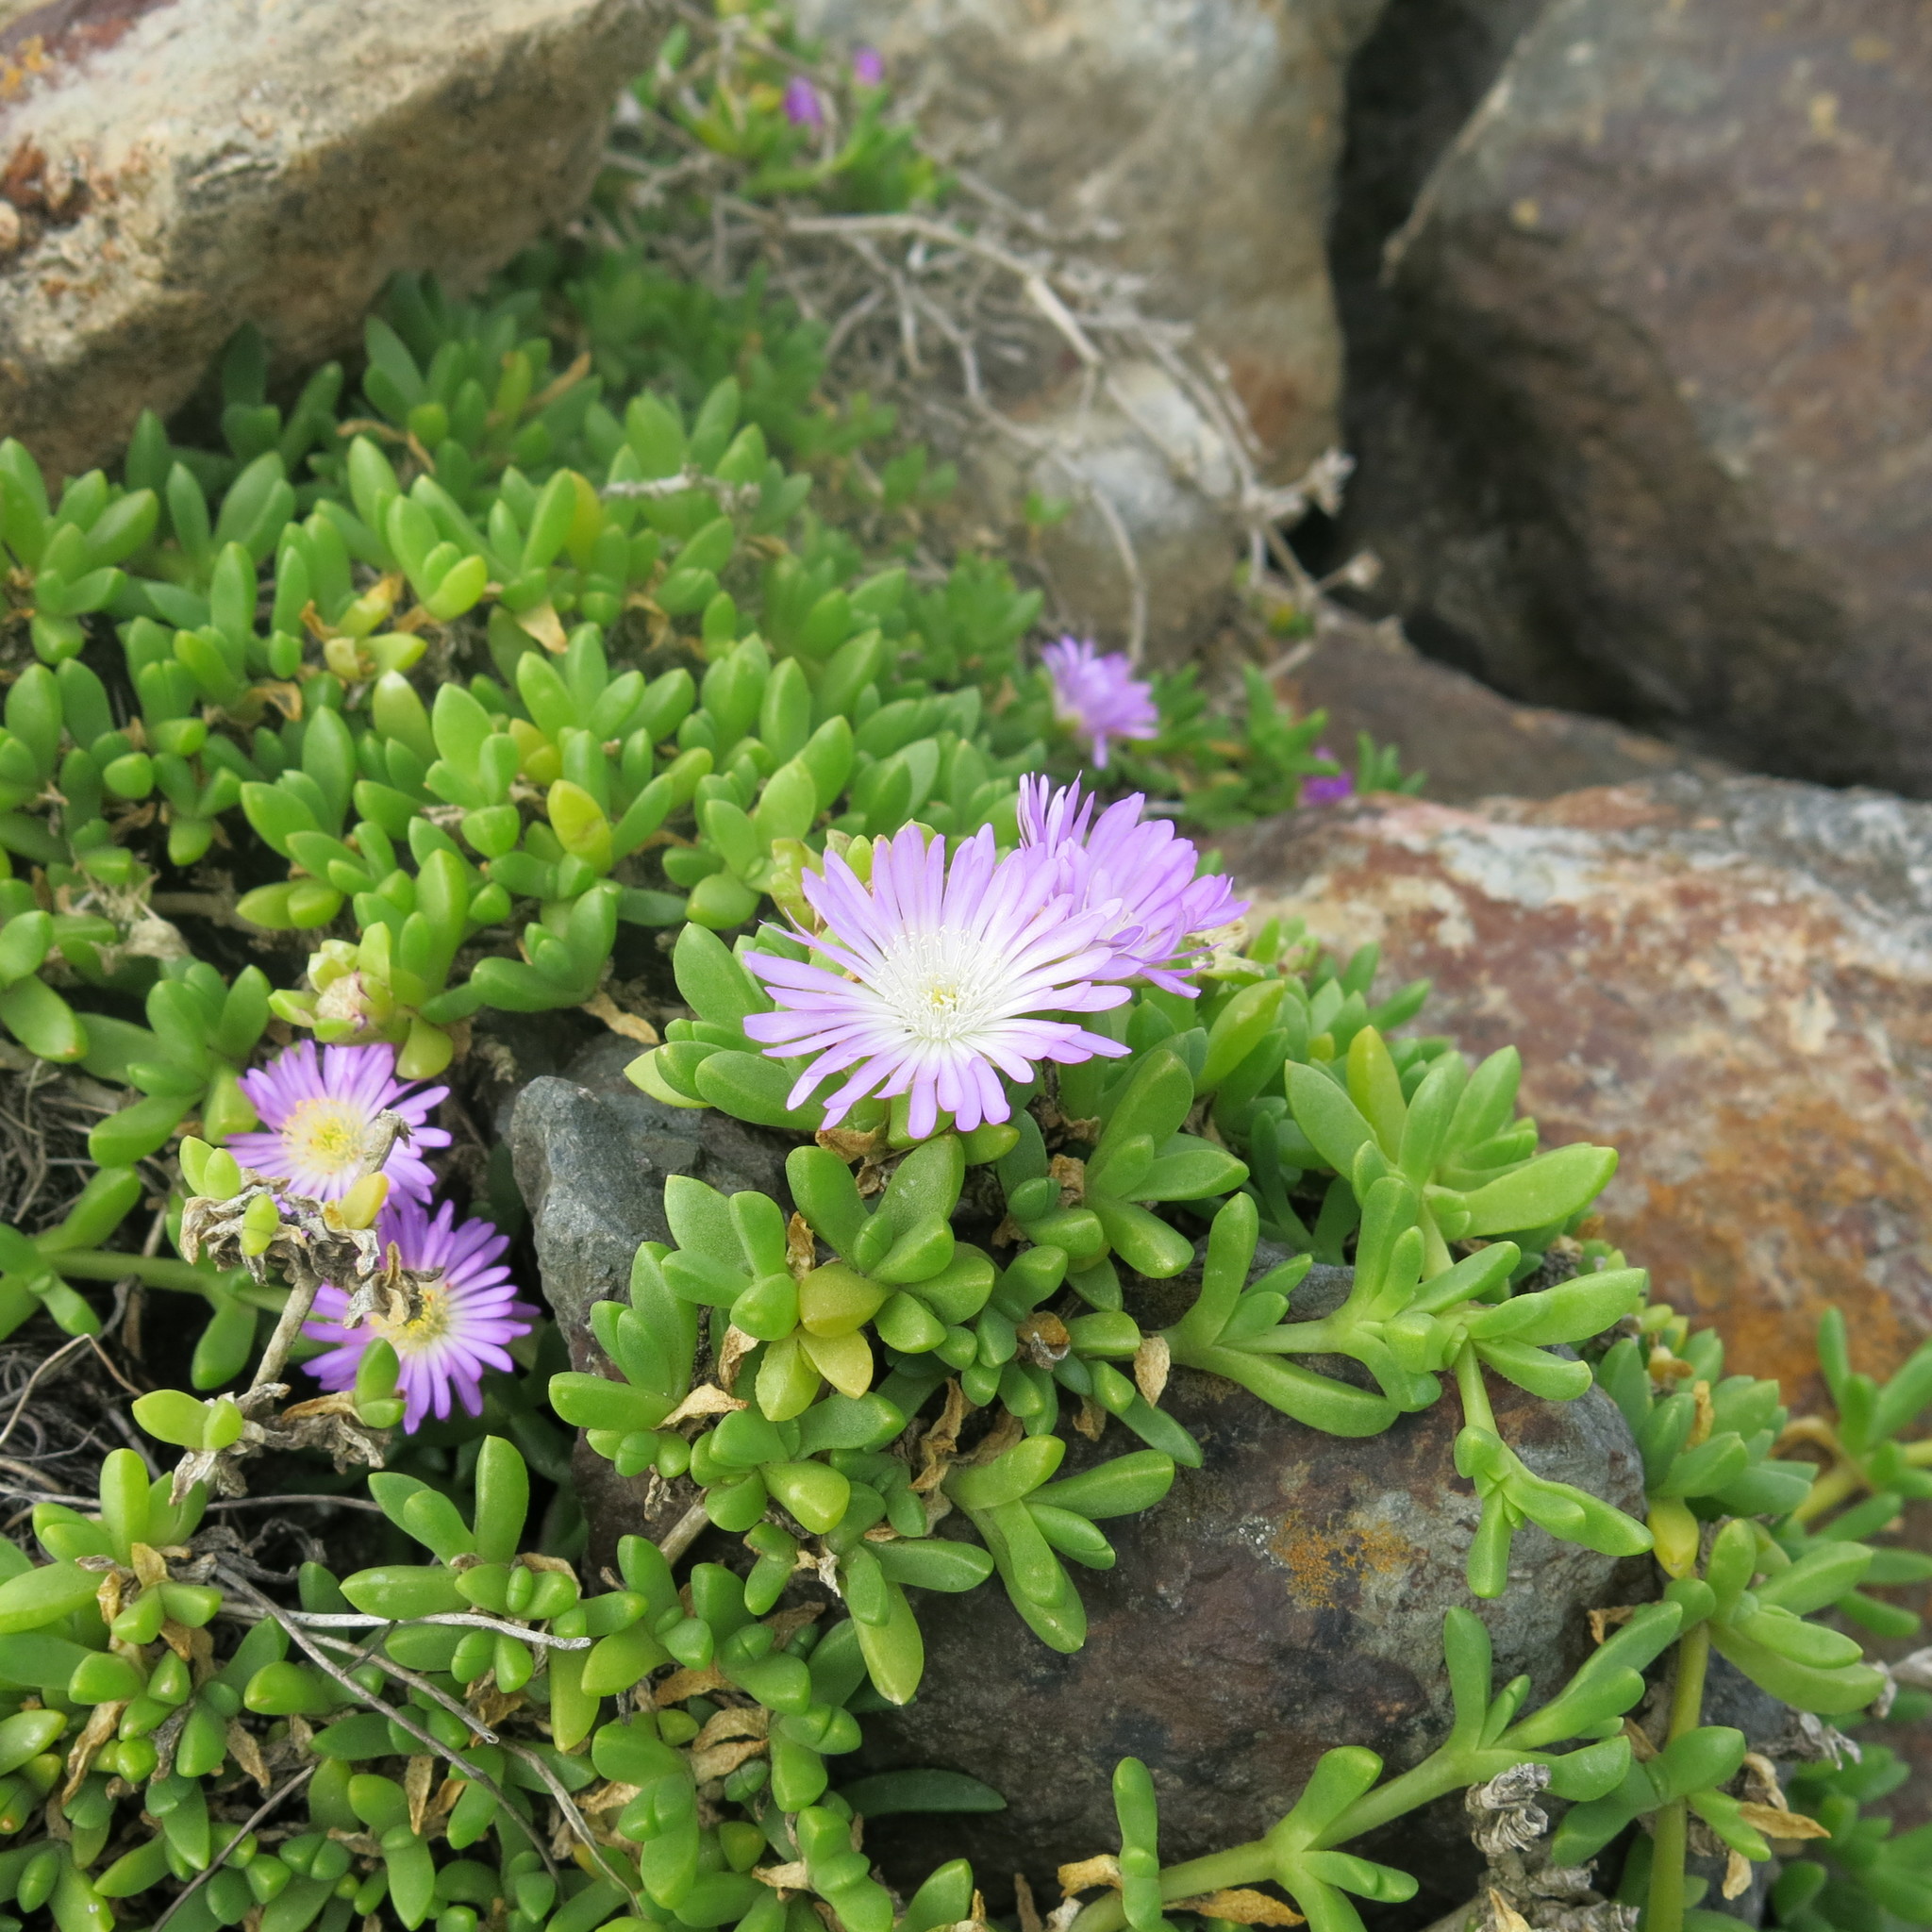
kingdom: Plantae
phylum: Tracheophyta
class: Magnoliopsida
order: Caryophyllales
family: Aizoaceae
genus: Disphyma
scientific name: Disphyma australe
